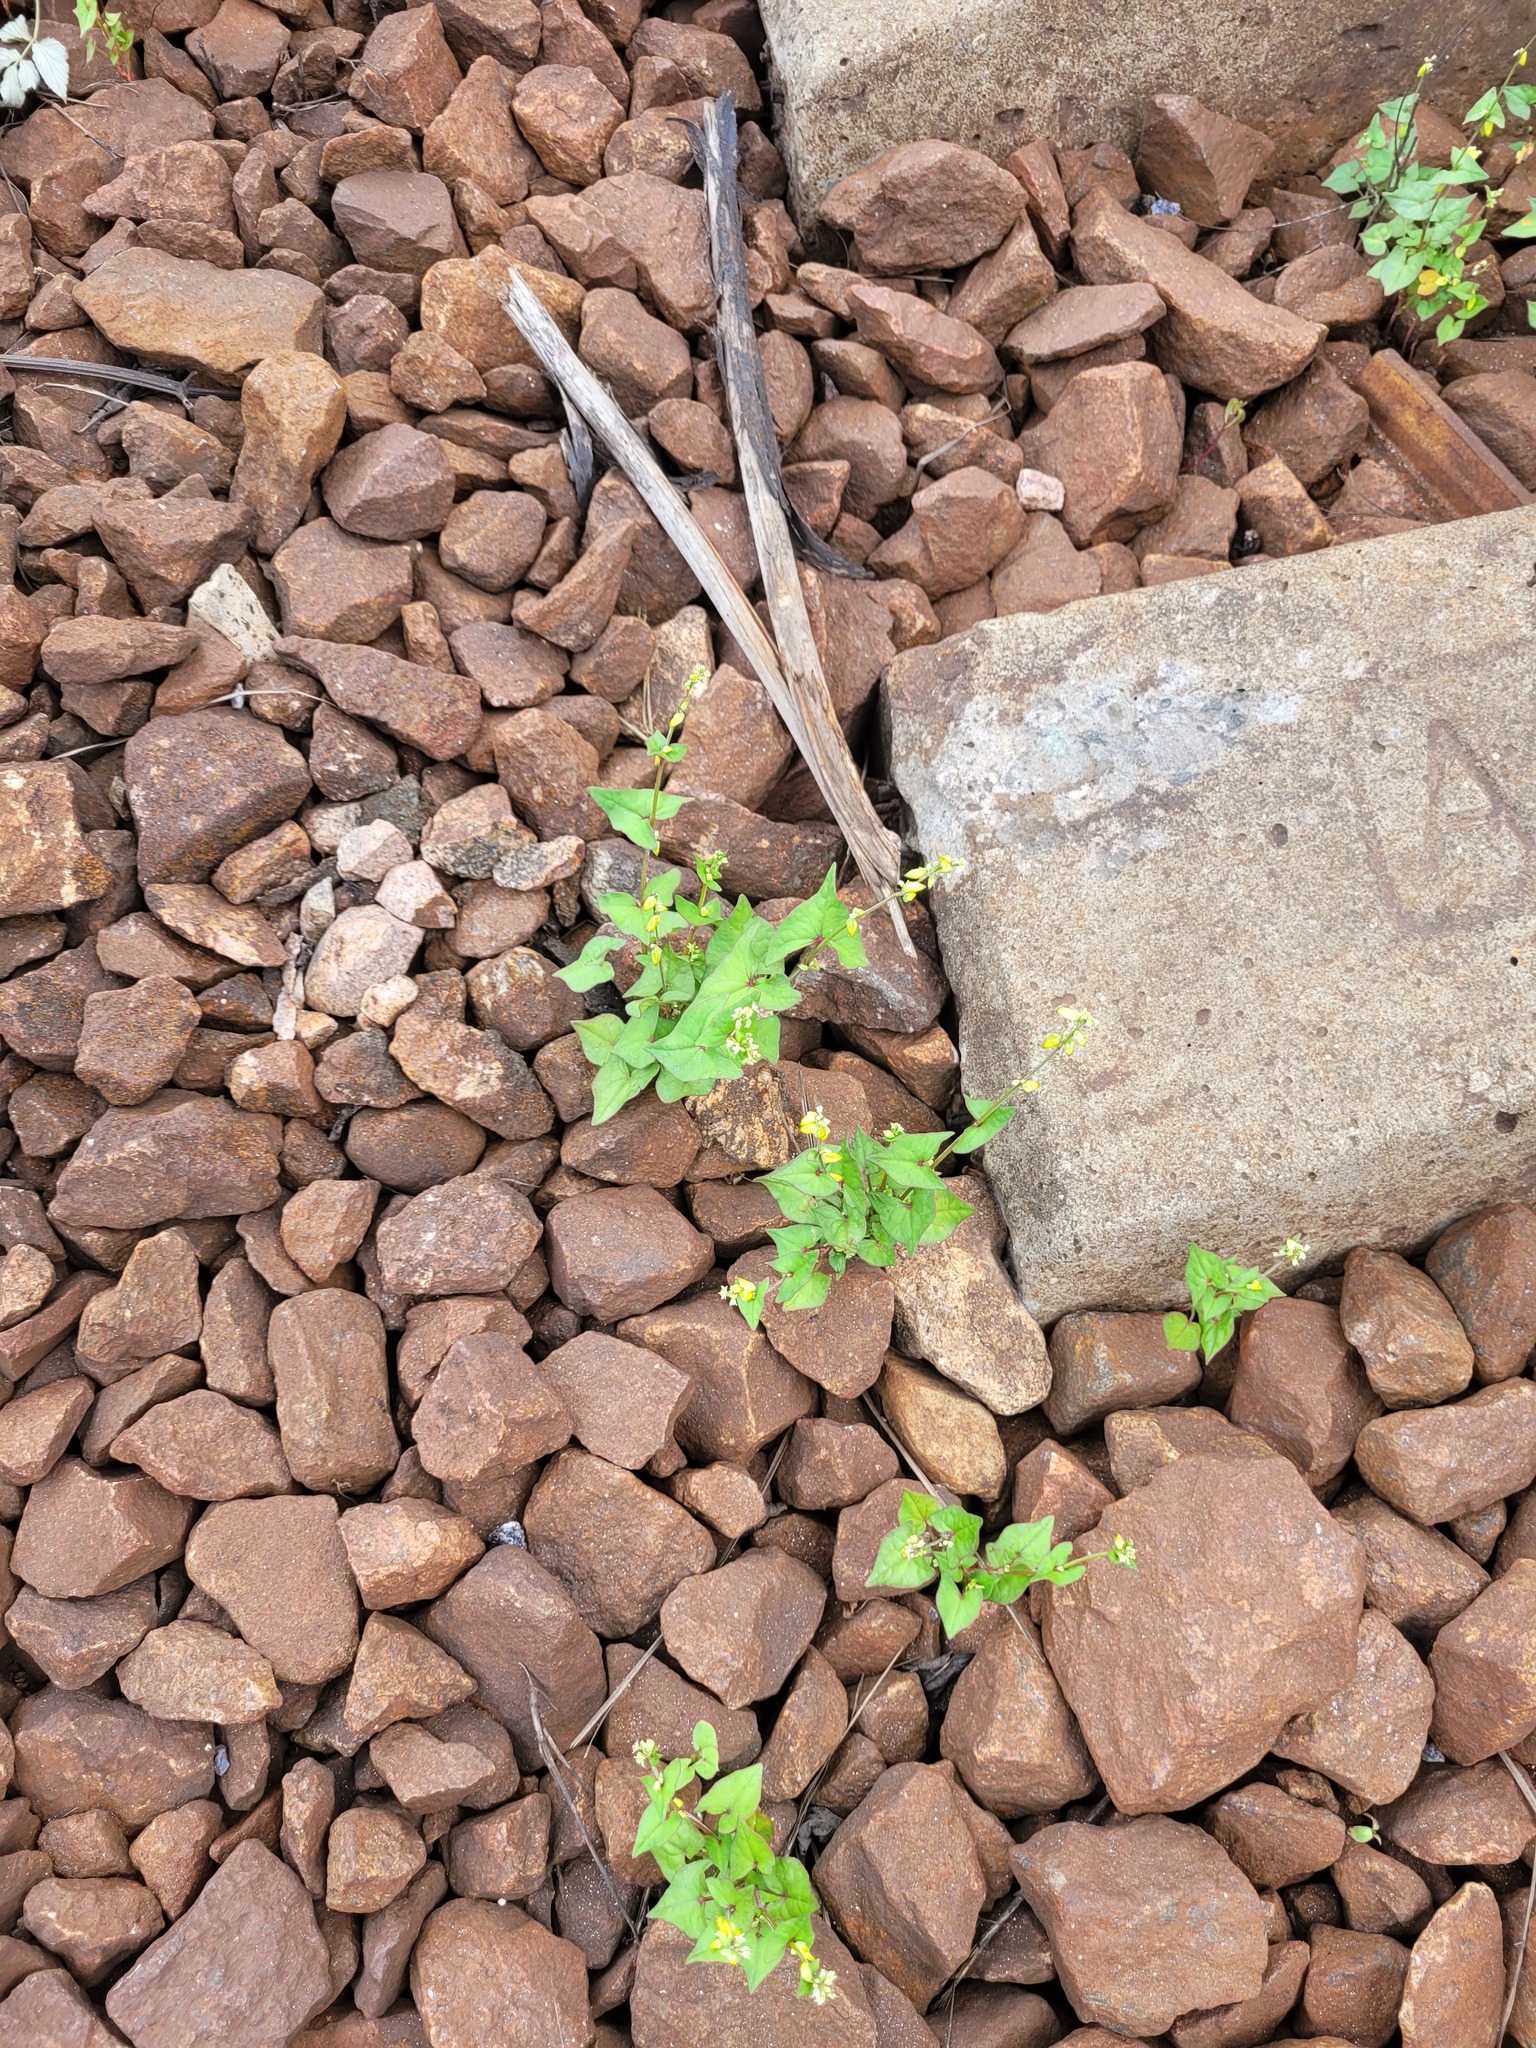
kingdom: Plantae
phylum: Tracheophyta
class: Magnoliopsida
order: Caryophyllales
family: Polygonaceae
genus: Fagopyrum
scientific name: Fagopyrum tataricum
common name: Green buckwheat
